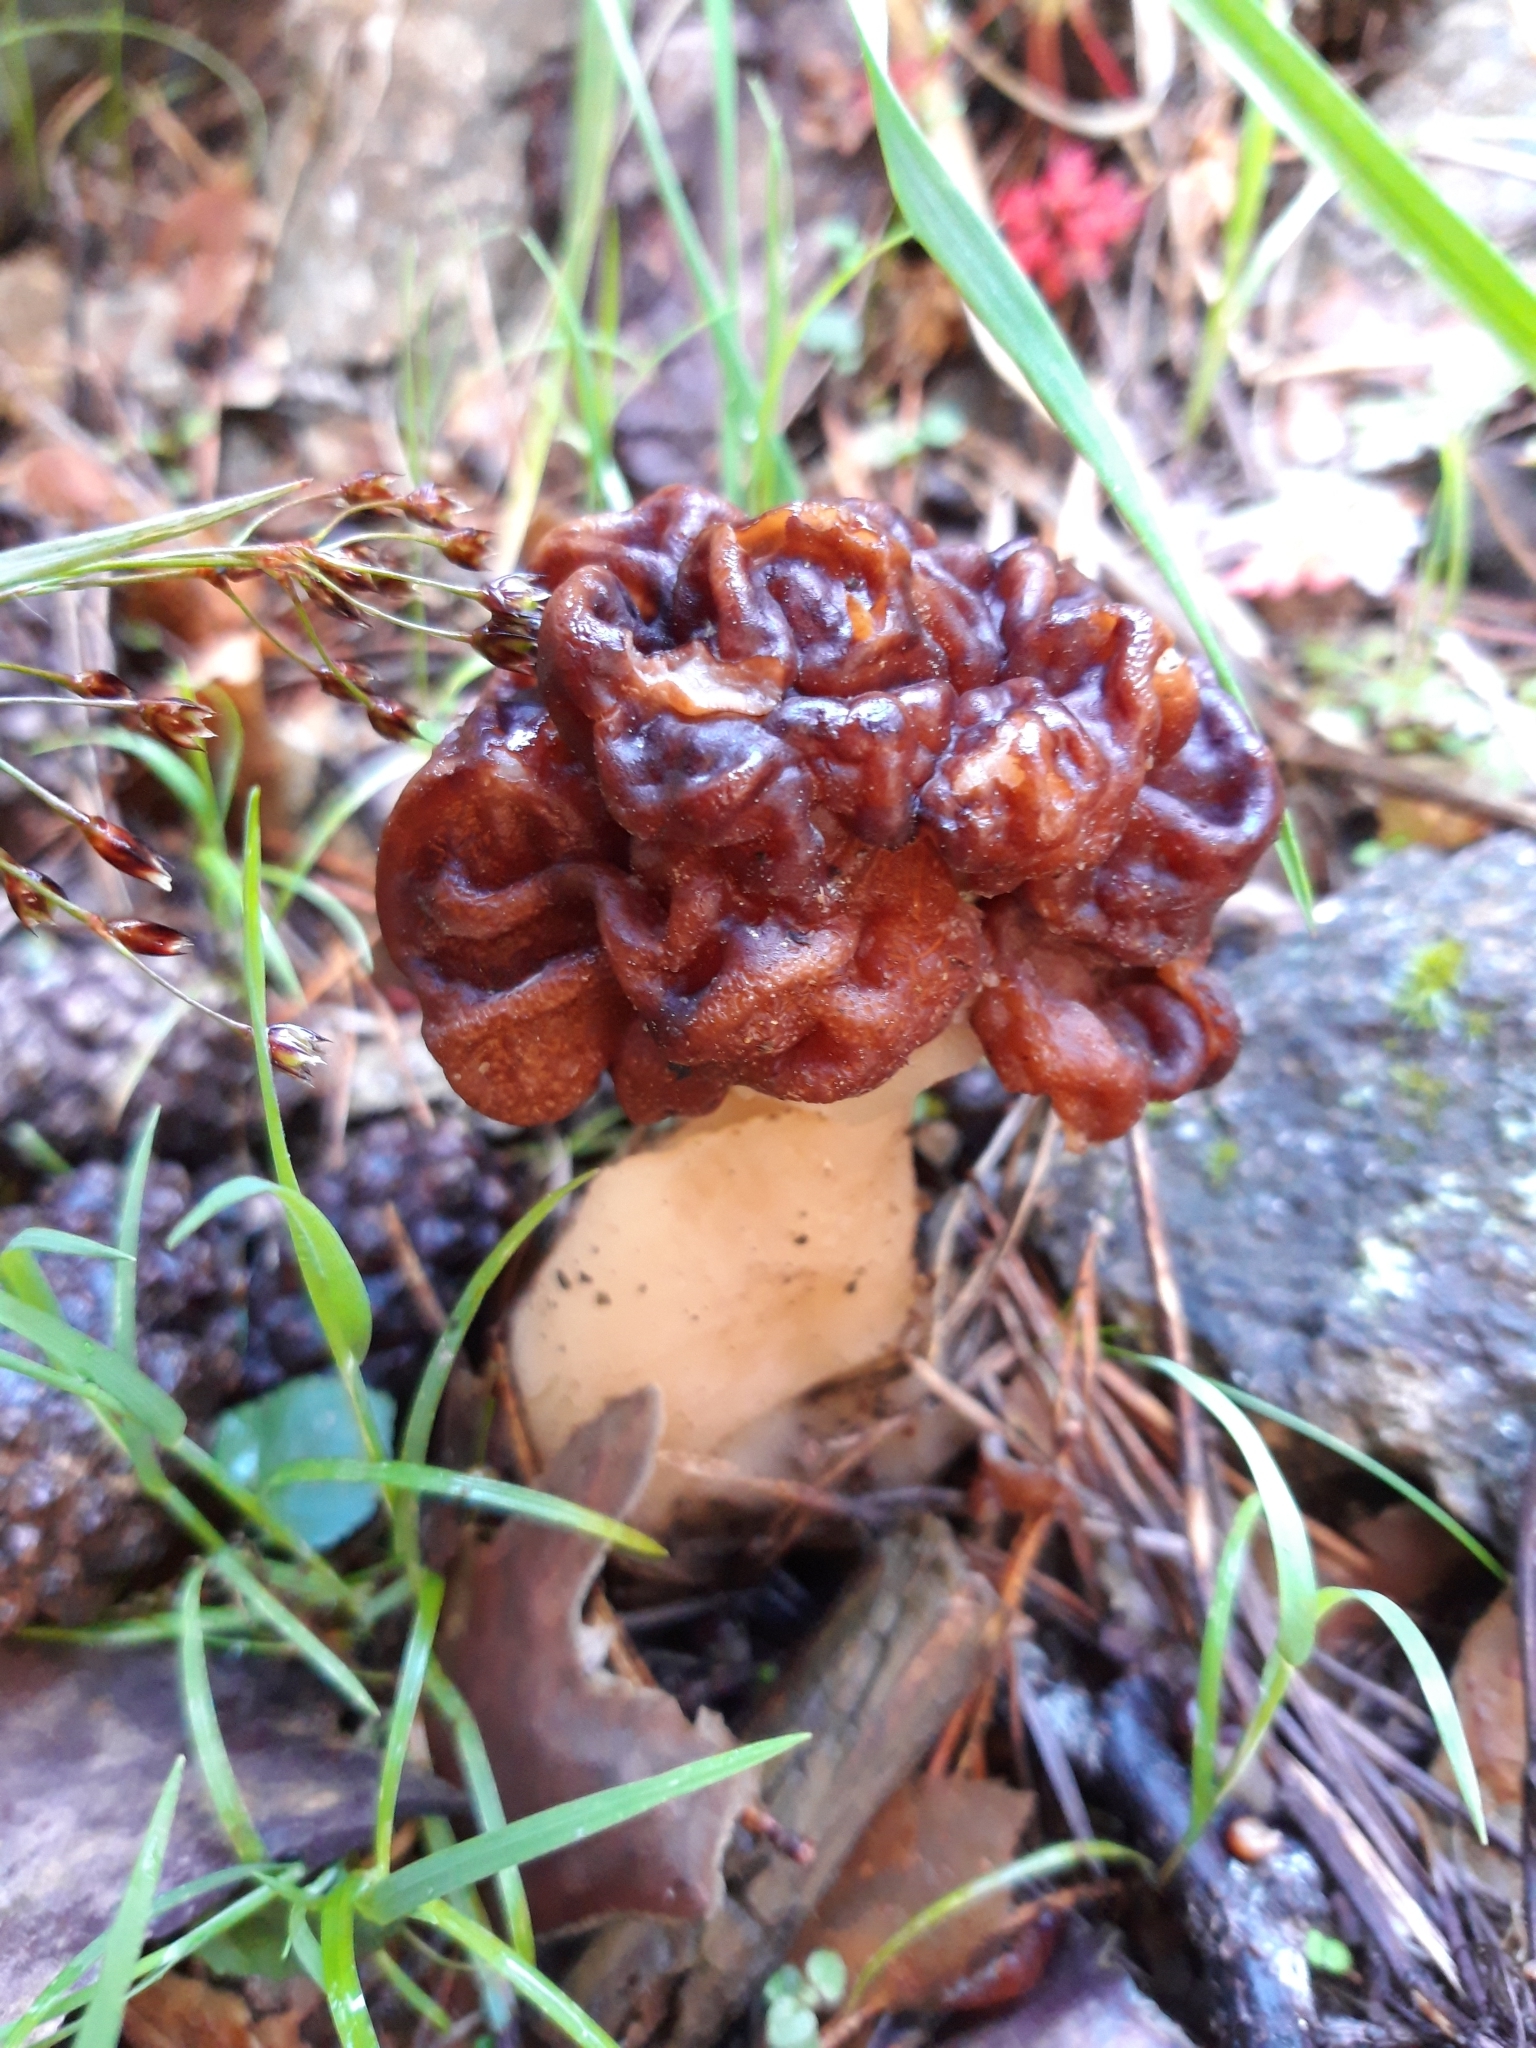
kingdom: Fungi
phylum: Ascomycota
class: Pezizomycetes
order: Pezizales
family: Discinaceae
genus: Gyromitra
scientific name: Gyromitra esculenta
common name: False morel
